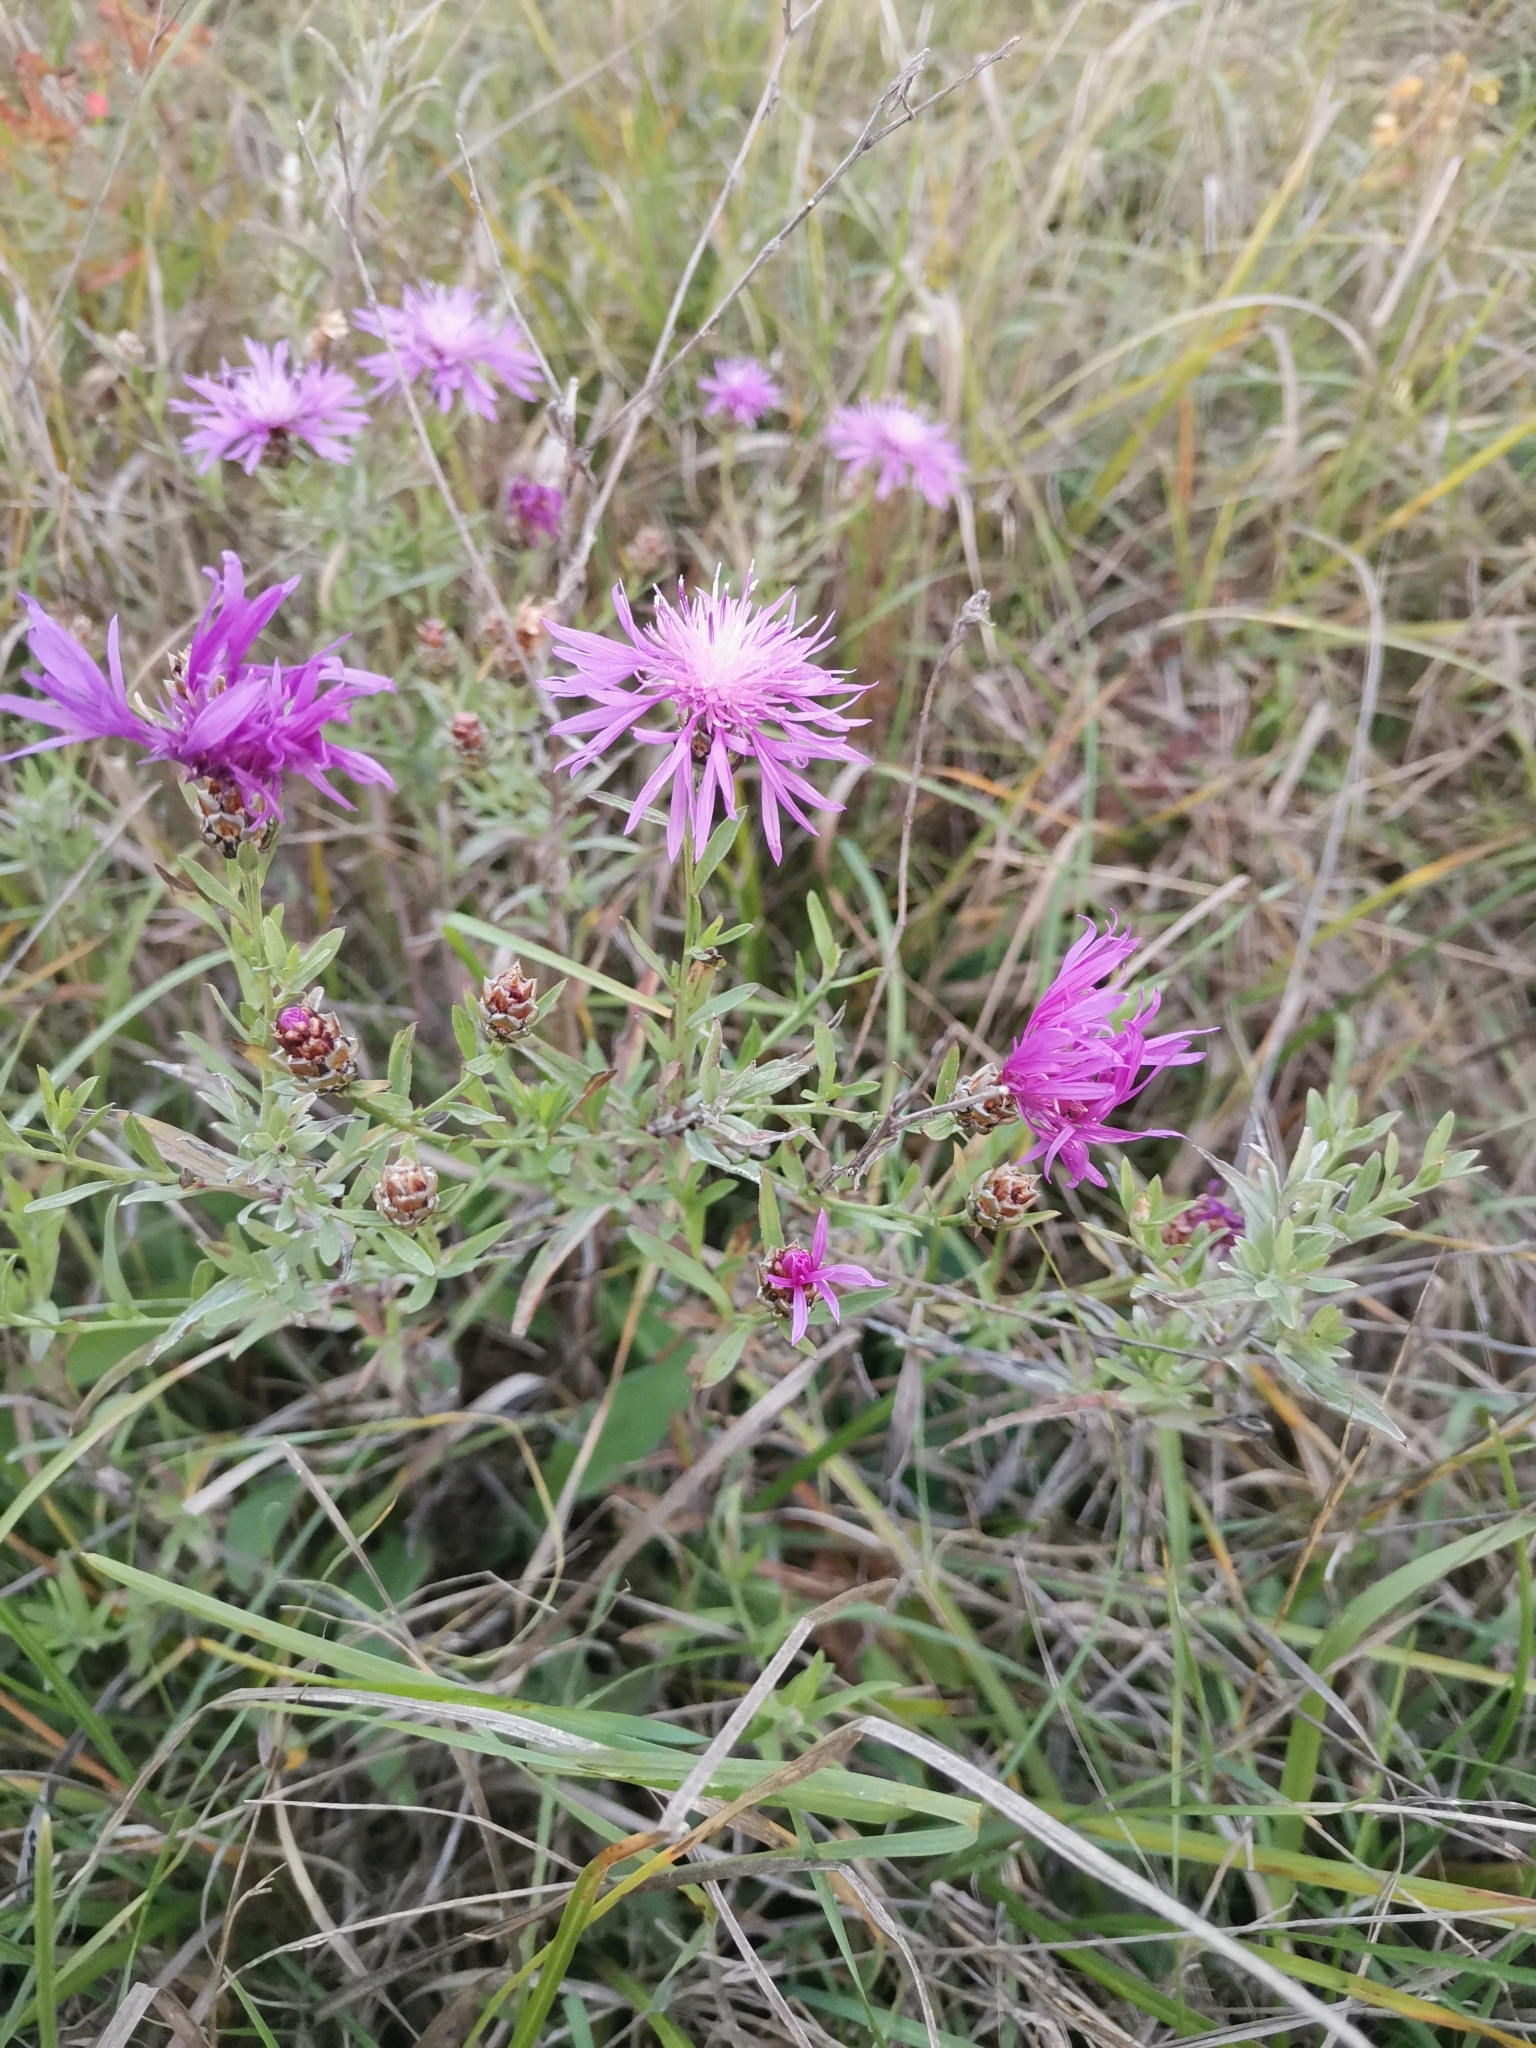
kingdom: Plantae
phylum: Tracheophyta
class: Magnoliopsida
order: Asterales
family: Asteraceae
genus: Centaurea
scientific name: Centaurea jacea
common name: Brown knapweed
